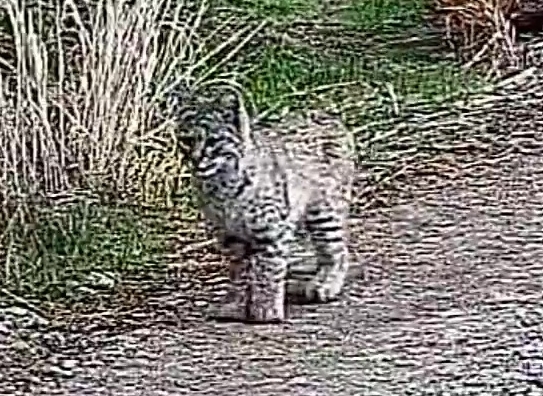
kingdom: Animalia
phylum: Chordata
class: Mammalia
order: Carnivora
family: Felidae
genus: Lynx
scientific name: Lynx rufus
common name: Bobcat
